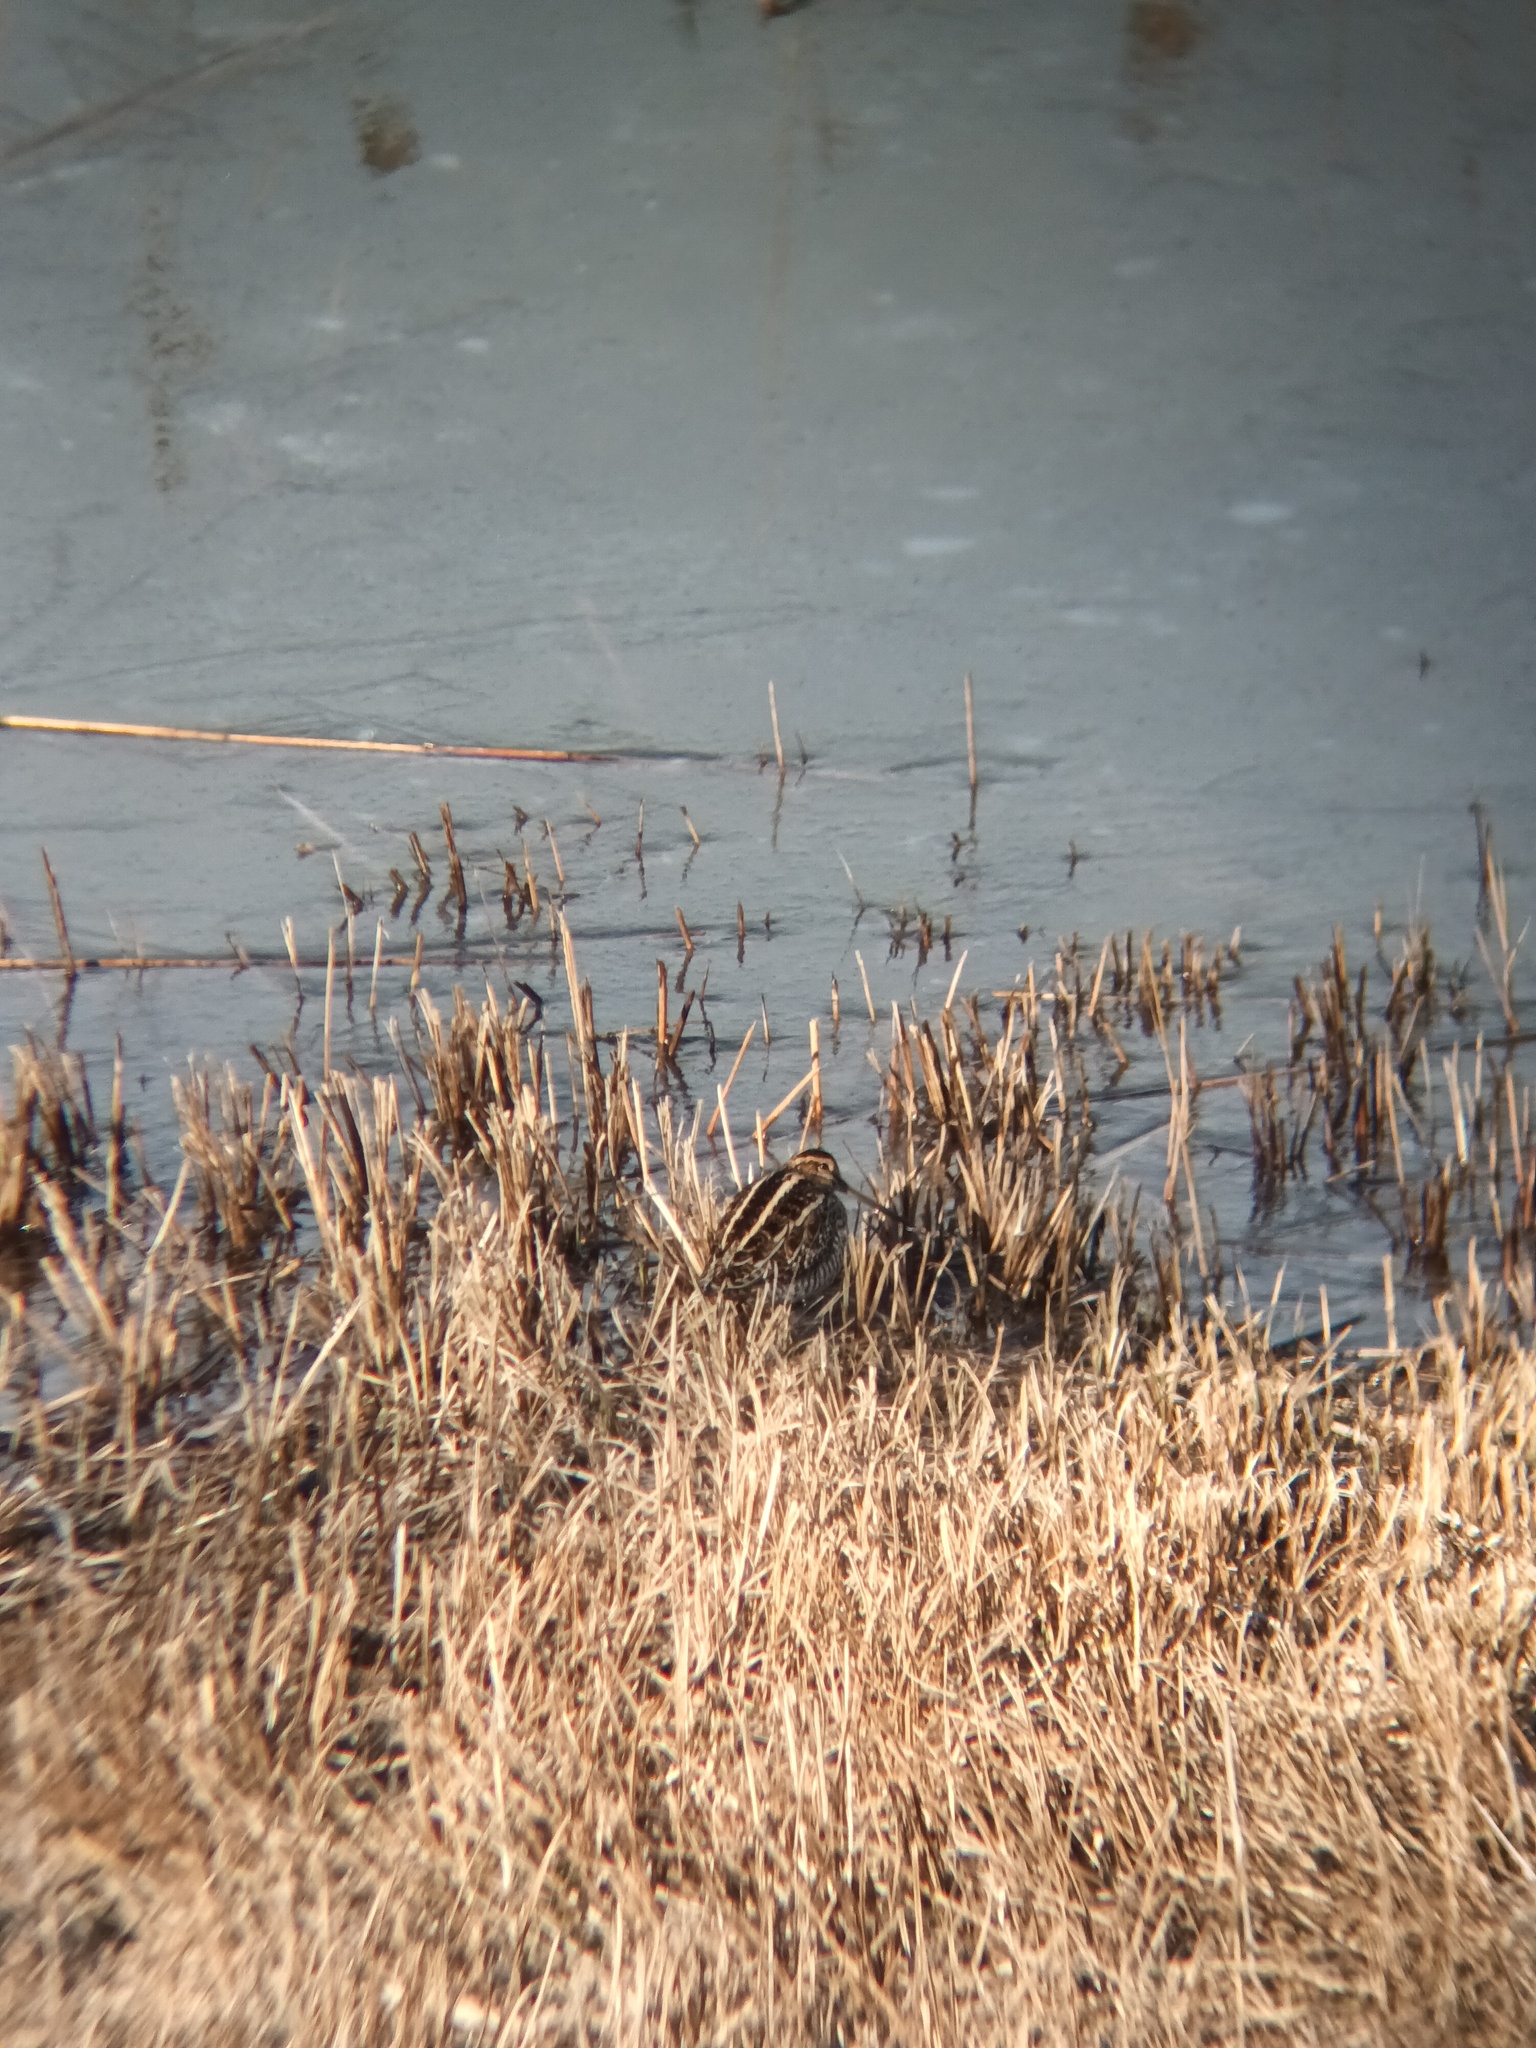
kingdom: Animalia
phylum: Chordata
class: Aves
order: Charadriiformes
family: Scolopacidae
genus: Gallinago
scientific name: Gallinago gallinago
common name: Common snipe
